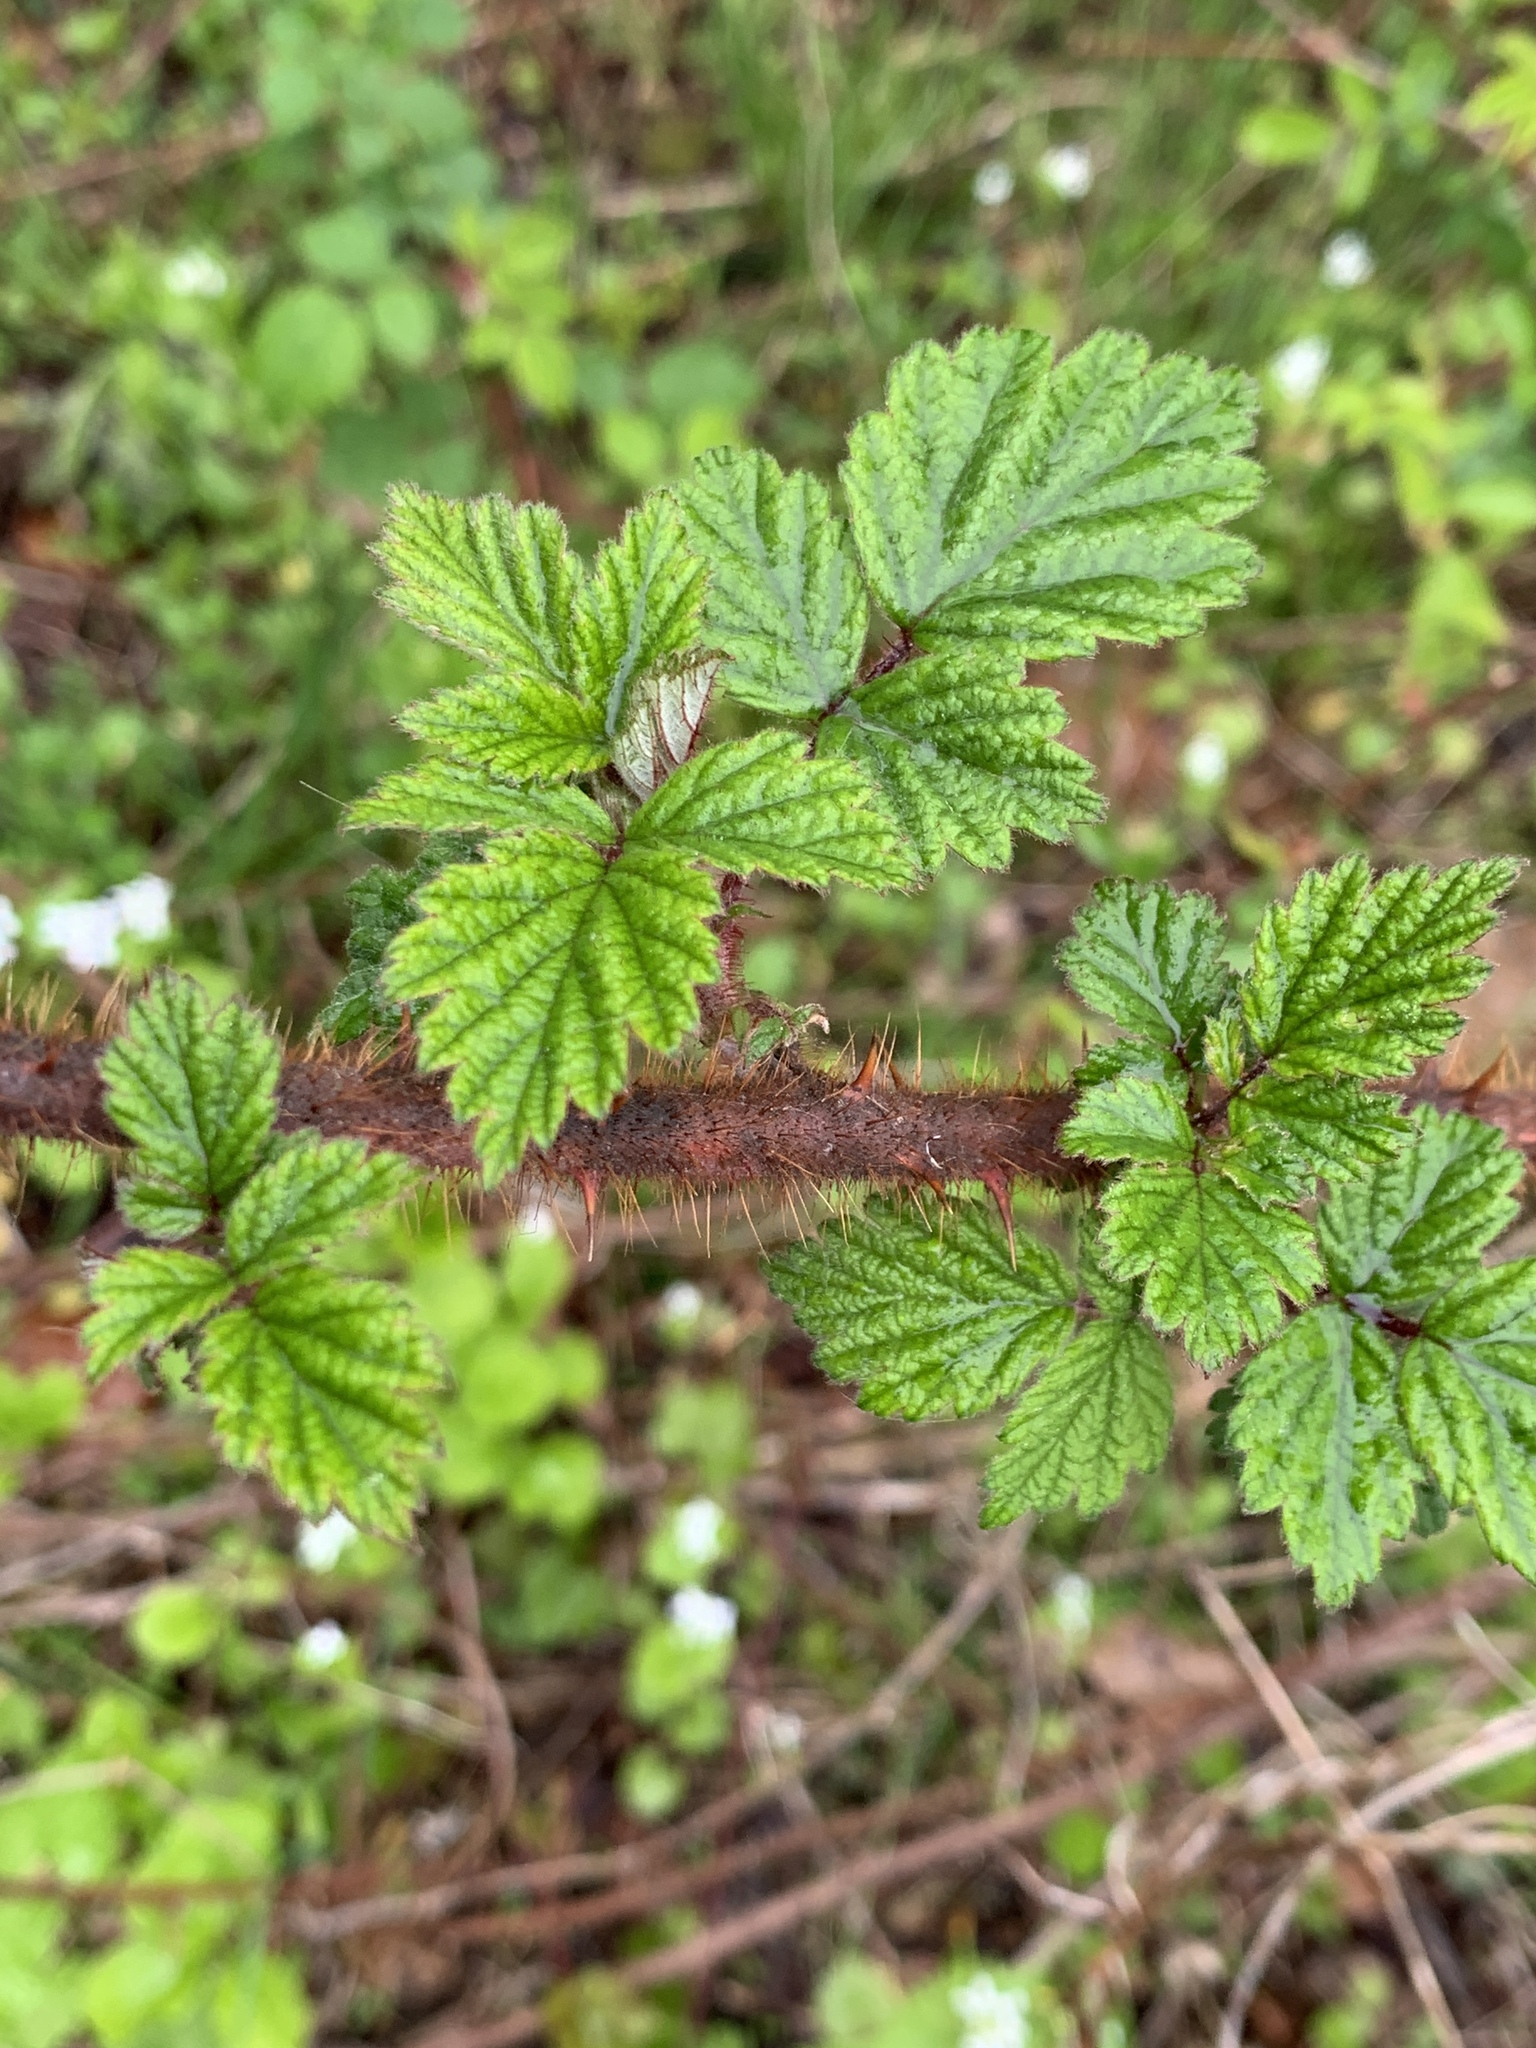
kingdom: Plantae
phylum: Tracheophyta
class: Magnoliopsida
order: Rosales
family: Rosaceae
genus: Rubus
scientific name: Rubus phoenicolasius
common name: Japanese wineberry
